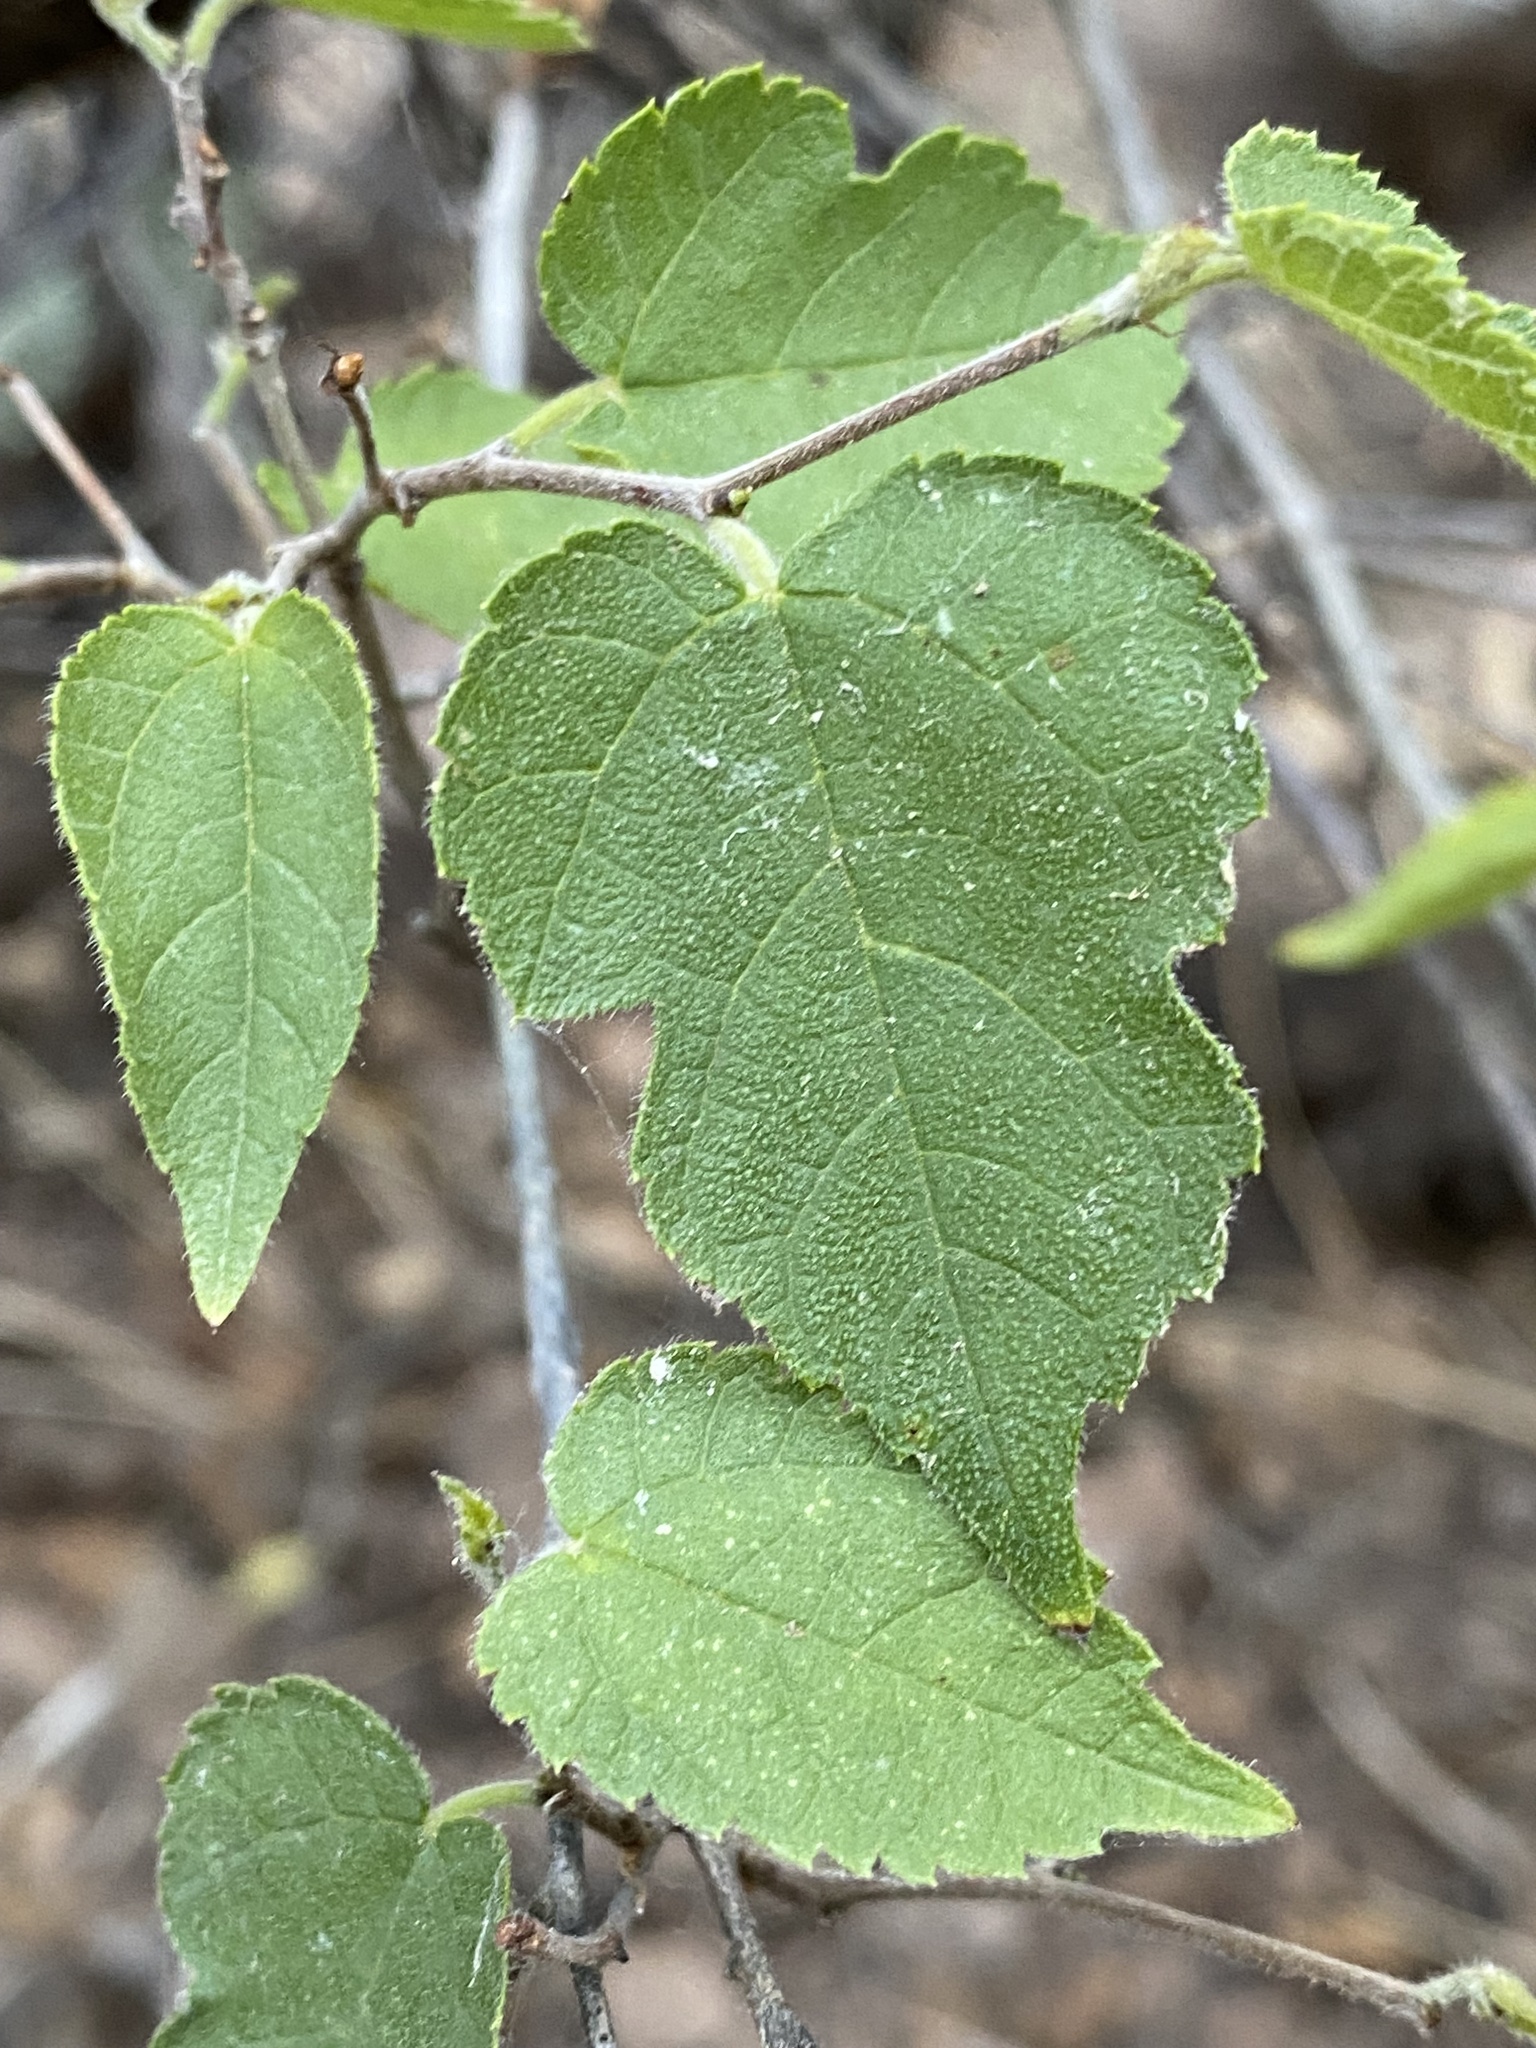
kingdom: Plantae
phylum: Tracheophyta
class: Magnoliopsida
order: Rosales
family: Moraceae
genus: Morus
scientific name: Morus microphylla
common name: Mexican mulberry
